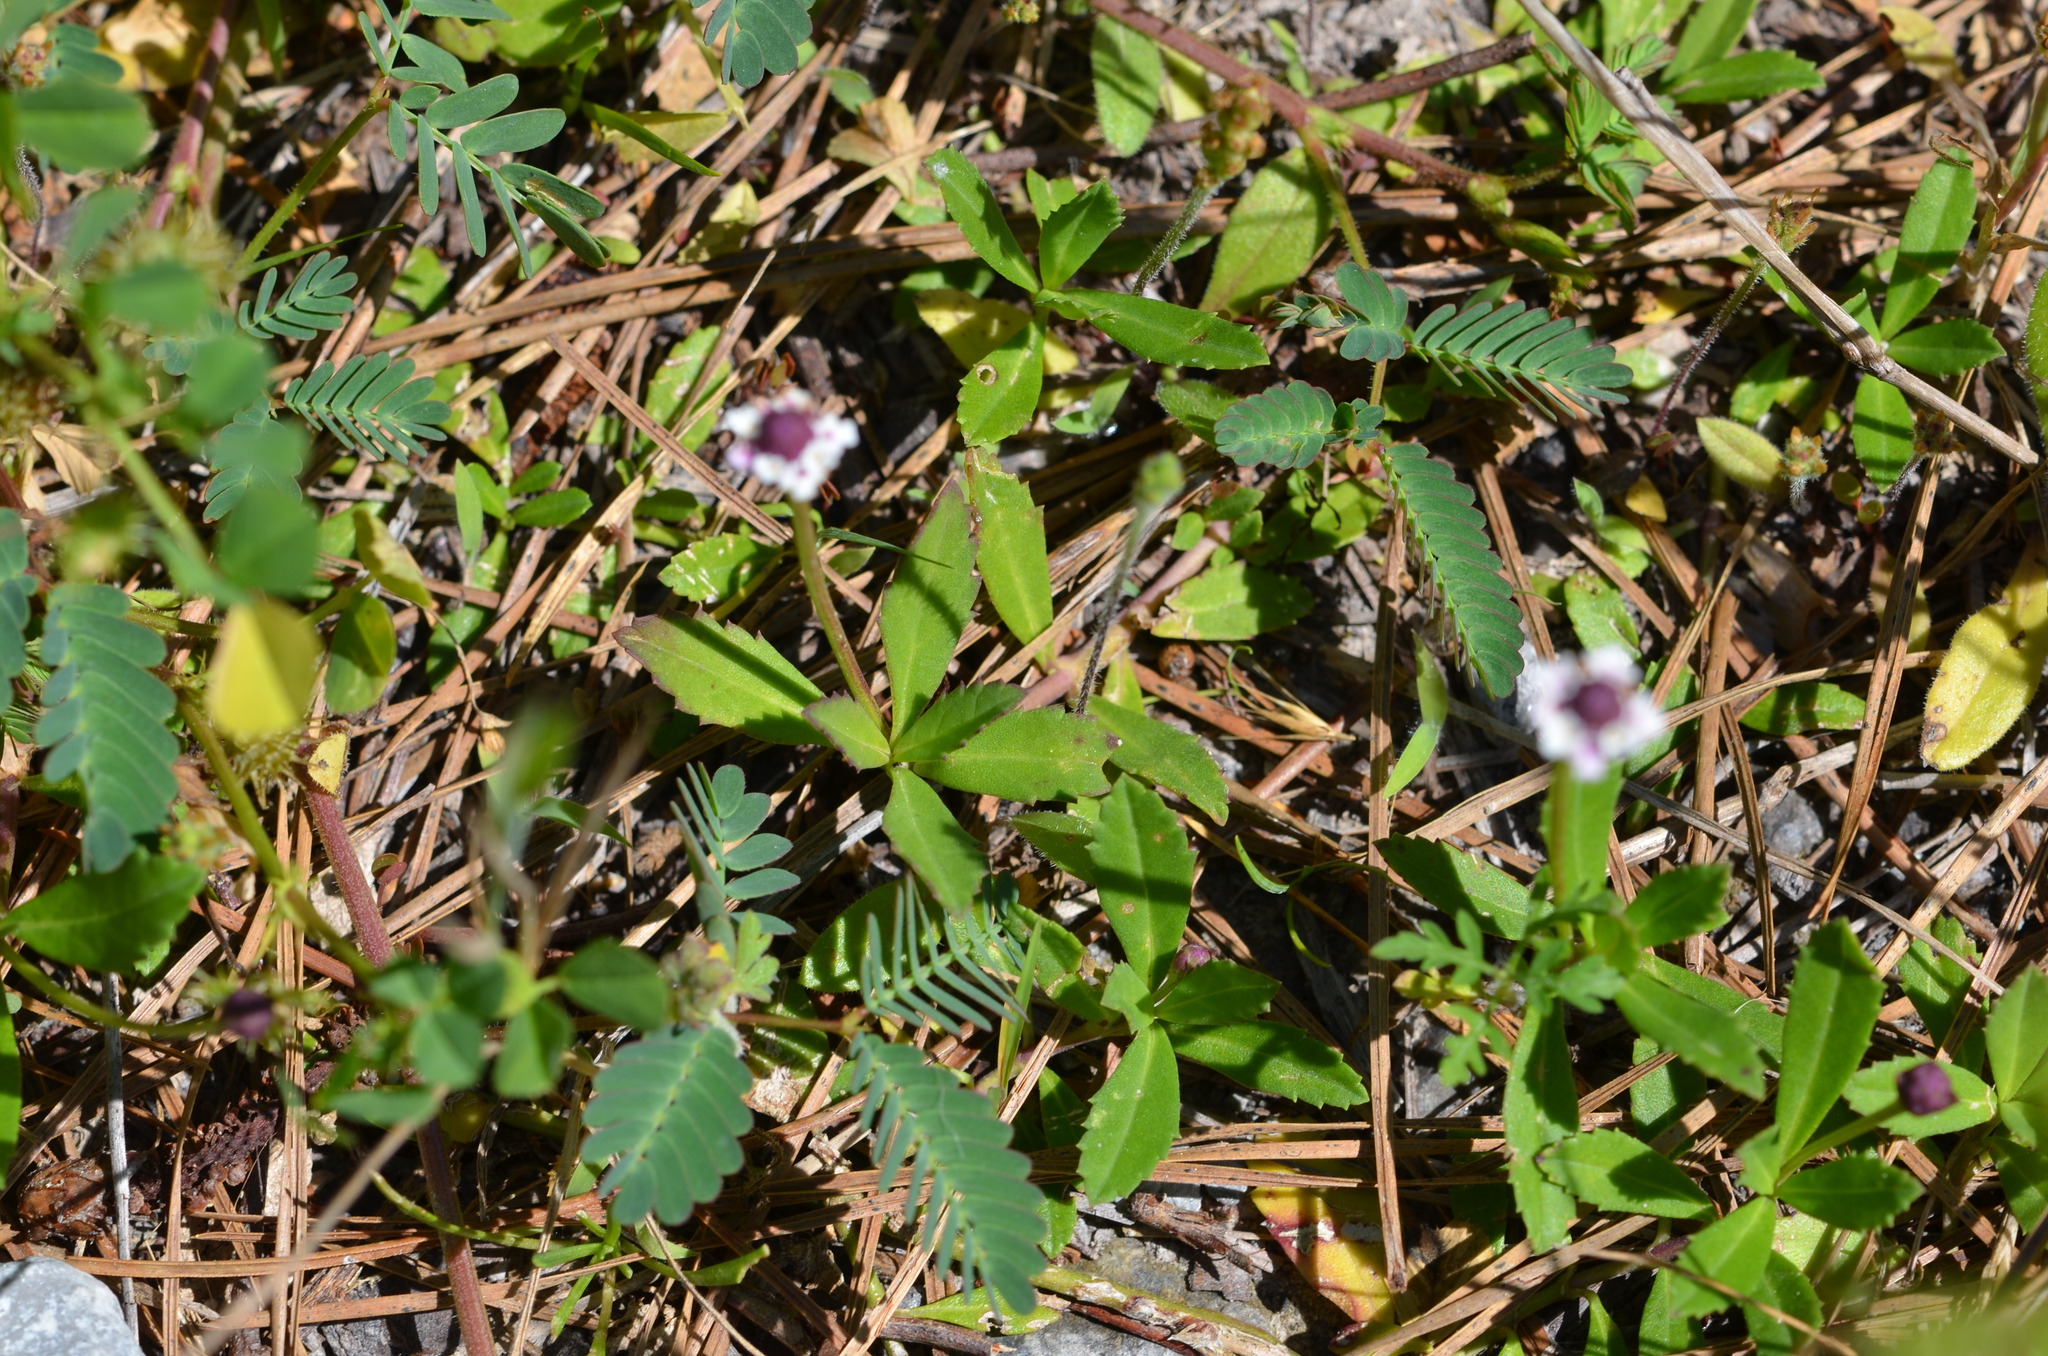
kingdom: Plantae
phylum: Tracheophyta
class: Magnoliopsida
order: Lamiales
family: Verbenaceae
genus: Phyla
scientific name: Phyla nodiflora
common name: Frogfruit
